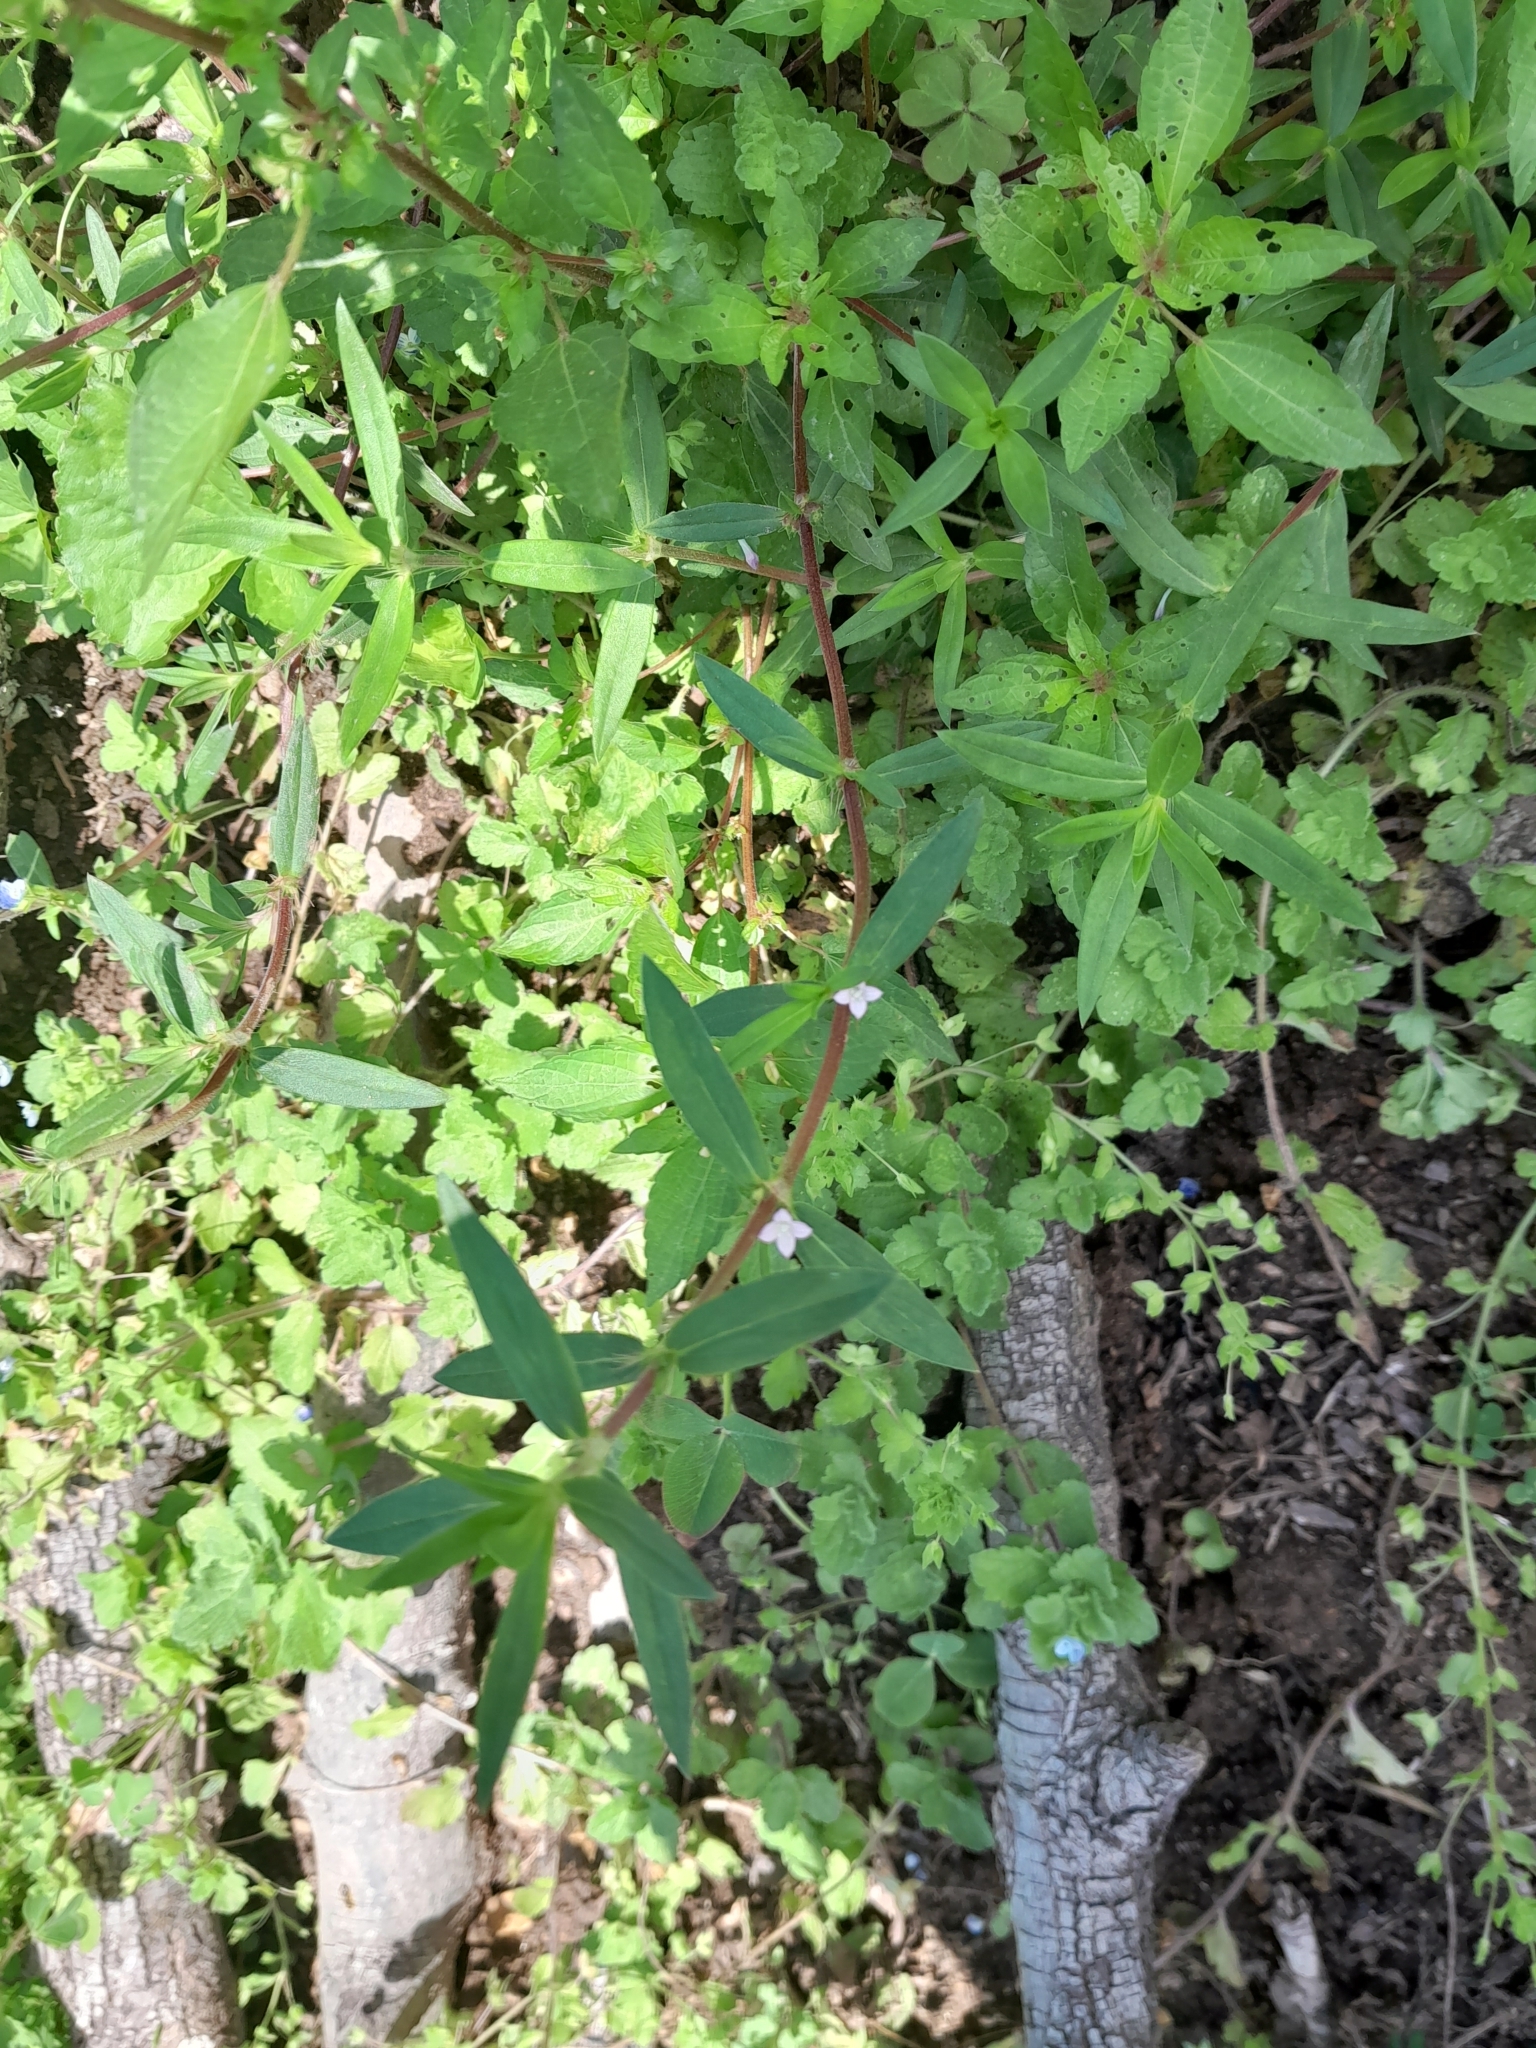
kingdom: Plantae
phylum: Tracheophyta
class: Magnoliopsida
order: Gentianales
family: Rubiaceae
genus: Hexasepalum
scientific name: Hexasepalum teres
